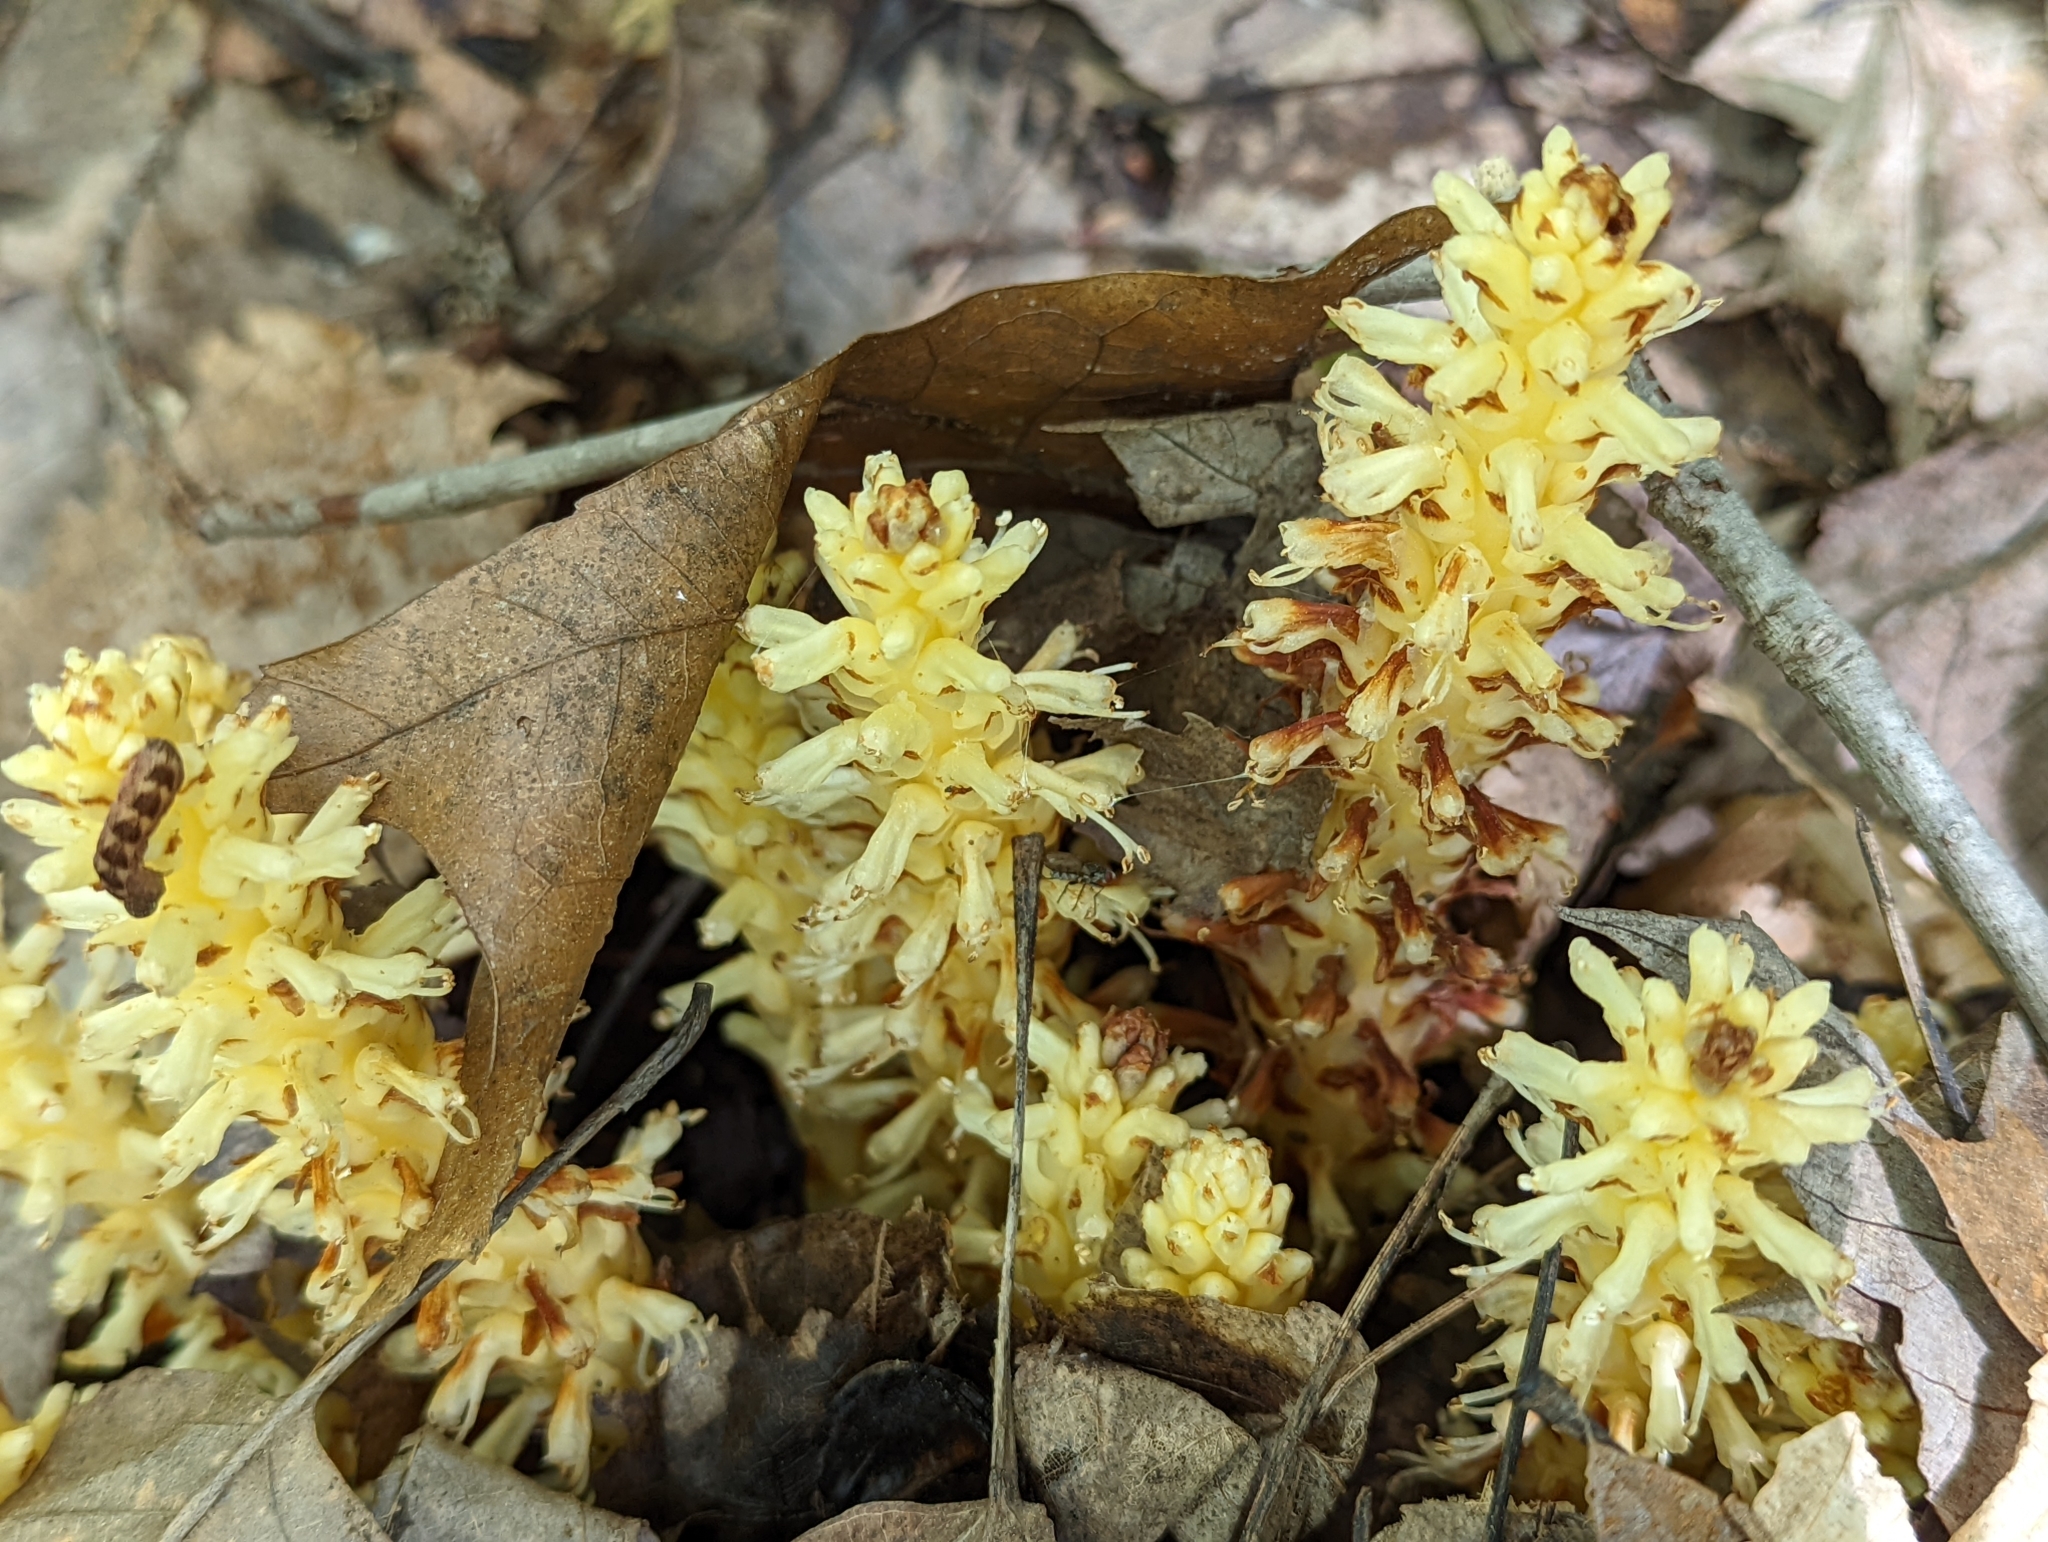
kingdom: Plantae
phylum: Tracheophyta
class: Magnoliopsida
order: Lamiales
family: Orobanchaceae
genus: Conopholis
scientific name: Conopholis americana
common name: American cancer-root
